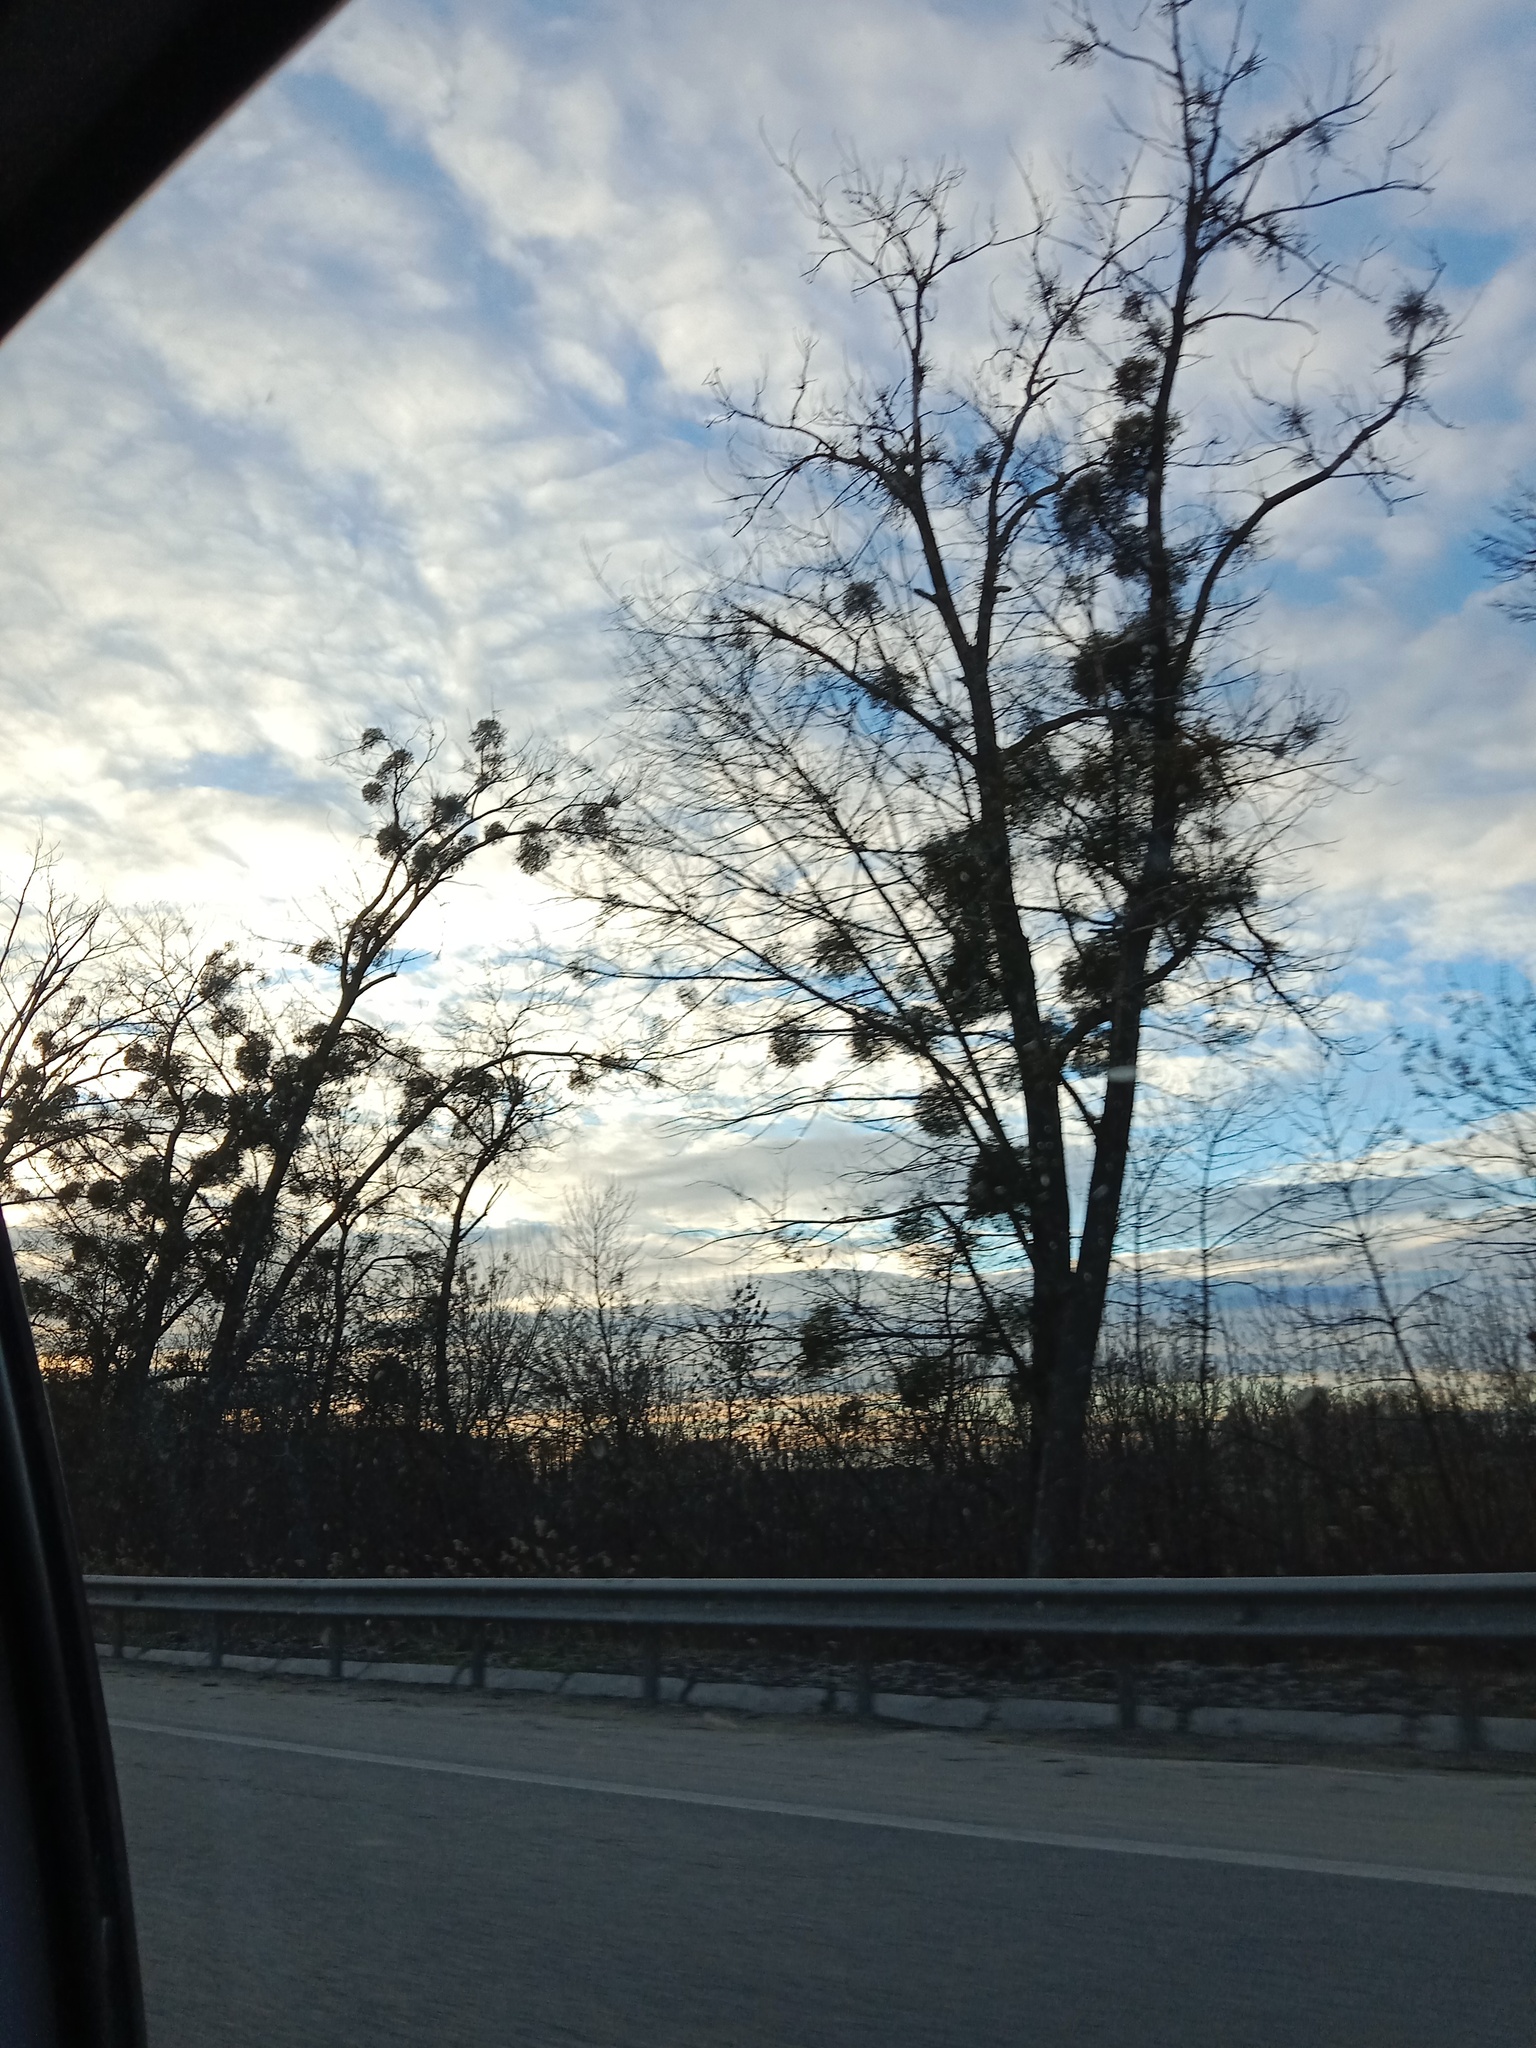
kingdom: Plantae
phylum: Tracheophyta
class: Magnoliopsida
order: Santalales
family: Viscaceae
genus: Viscum
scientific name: Viscum album
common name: Mistletoe
